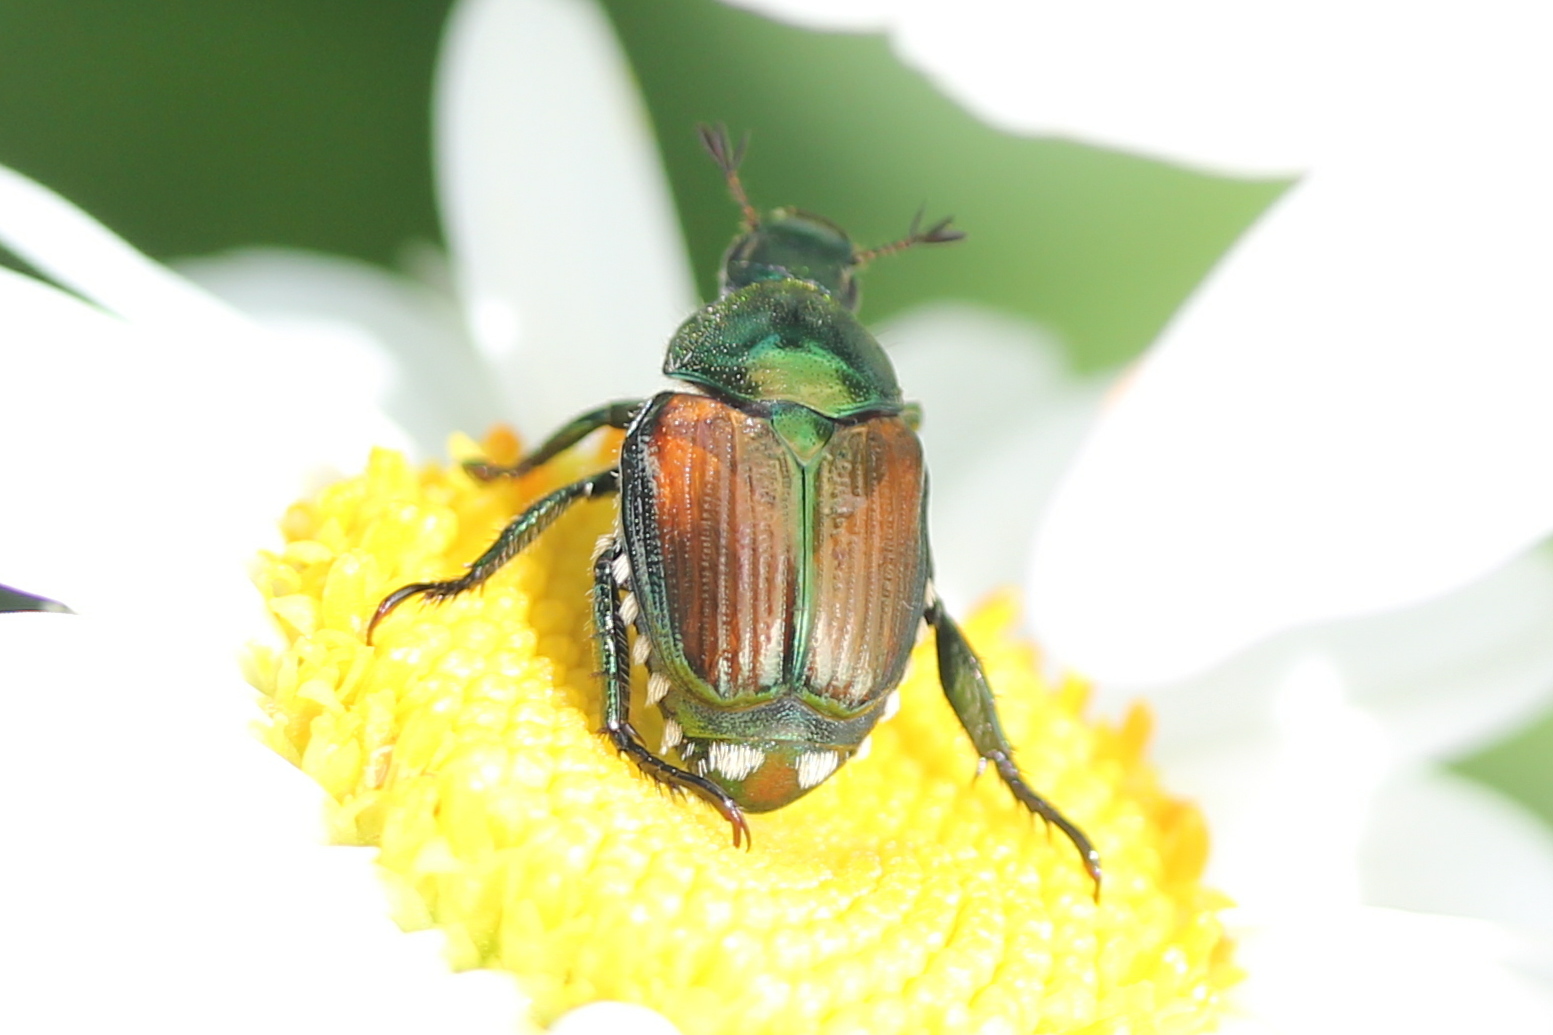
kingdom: Animalia
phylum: Arthropoda
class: Insecta
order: Coleoptera
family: Scarabaeidae
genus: Popillia
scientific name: Popillia japonica
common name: Japanese beetle
